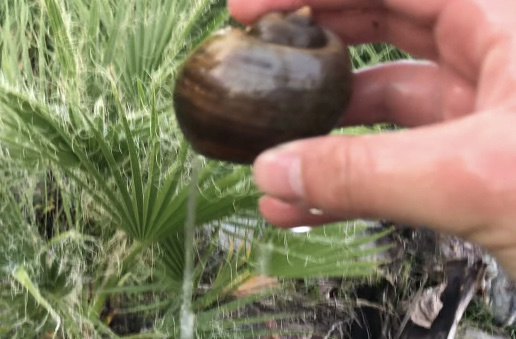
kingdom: Animalia
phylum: Mollusca
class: Gastropoda
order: Architaenioglossa
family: Ampullariidae
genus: Pomacea
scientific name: Pomacea canaliculata
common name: Channeled applesnail
